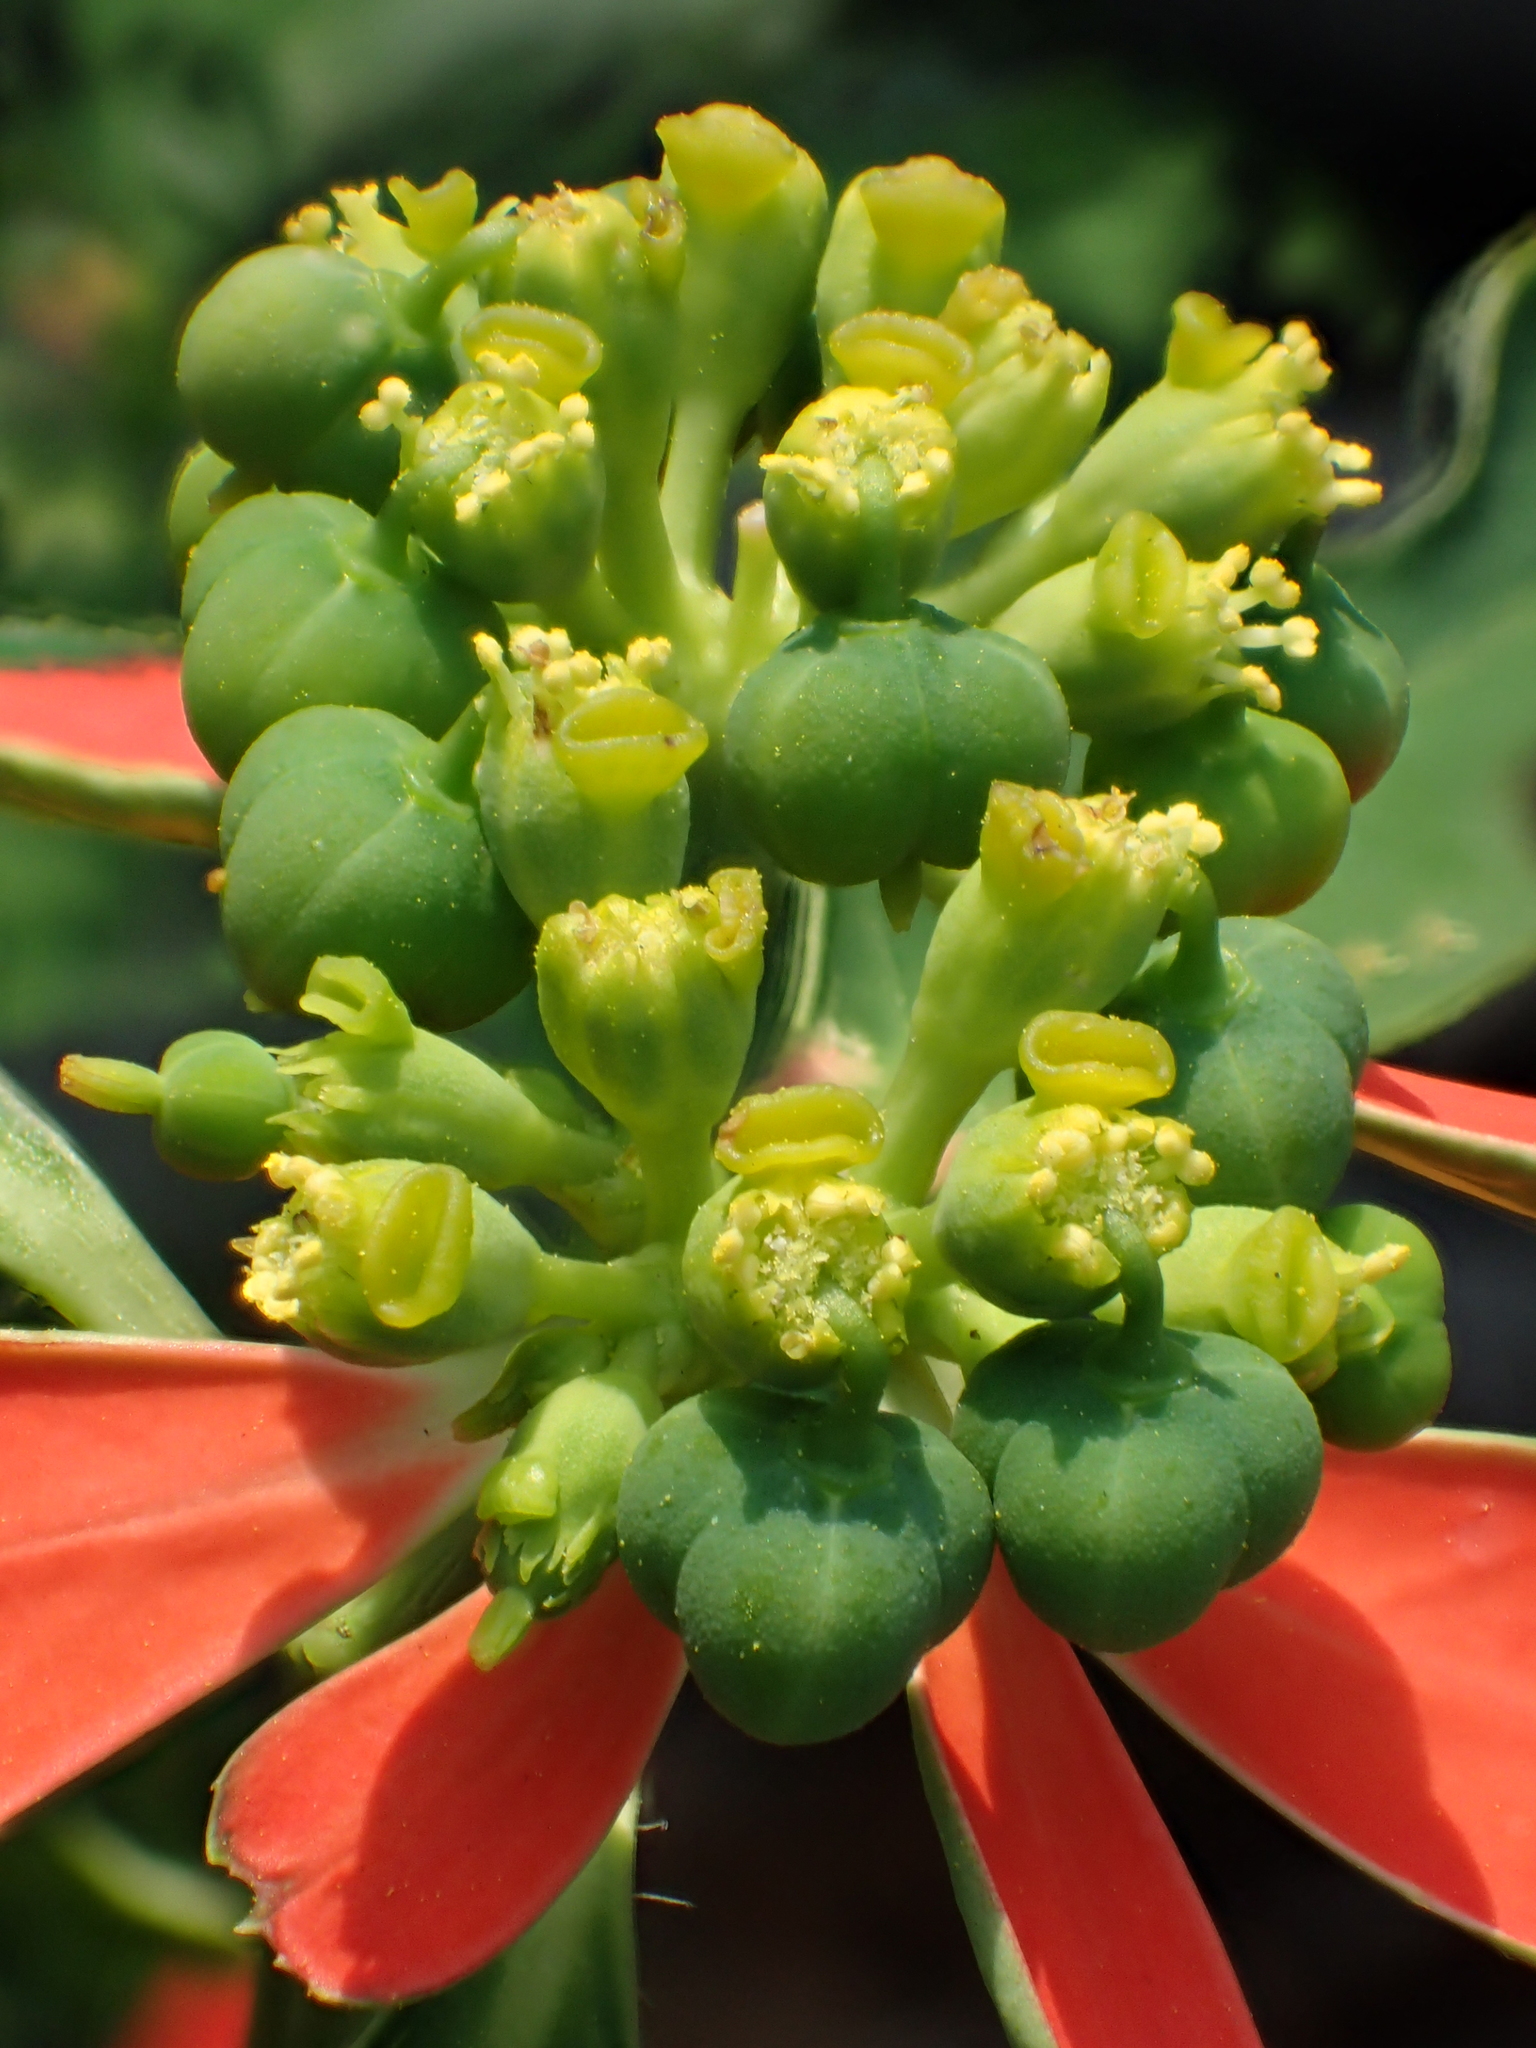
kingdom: Plantae
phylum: Tracheophyta
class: Magnoliopsida
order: Malpighiales
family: Euphorbiaceae
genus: Euphorbia
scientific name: Euphorbia heterophylla
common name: Mexican fireplant
